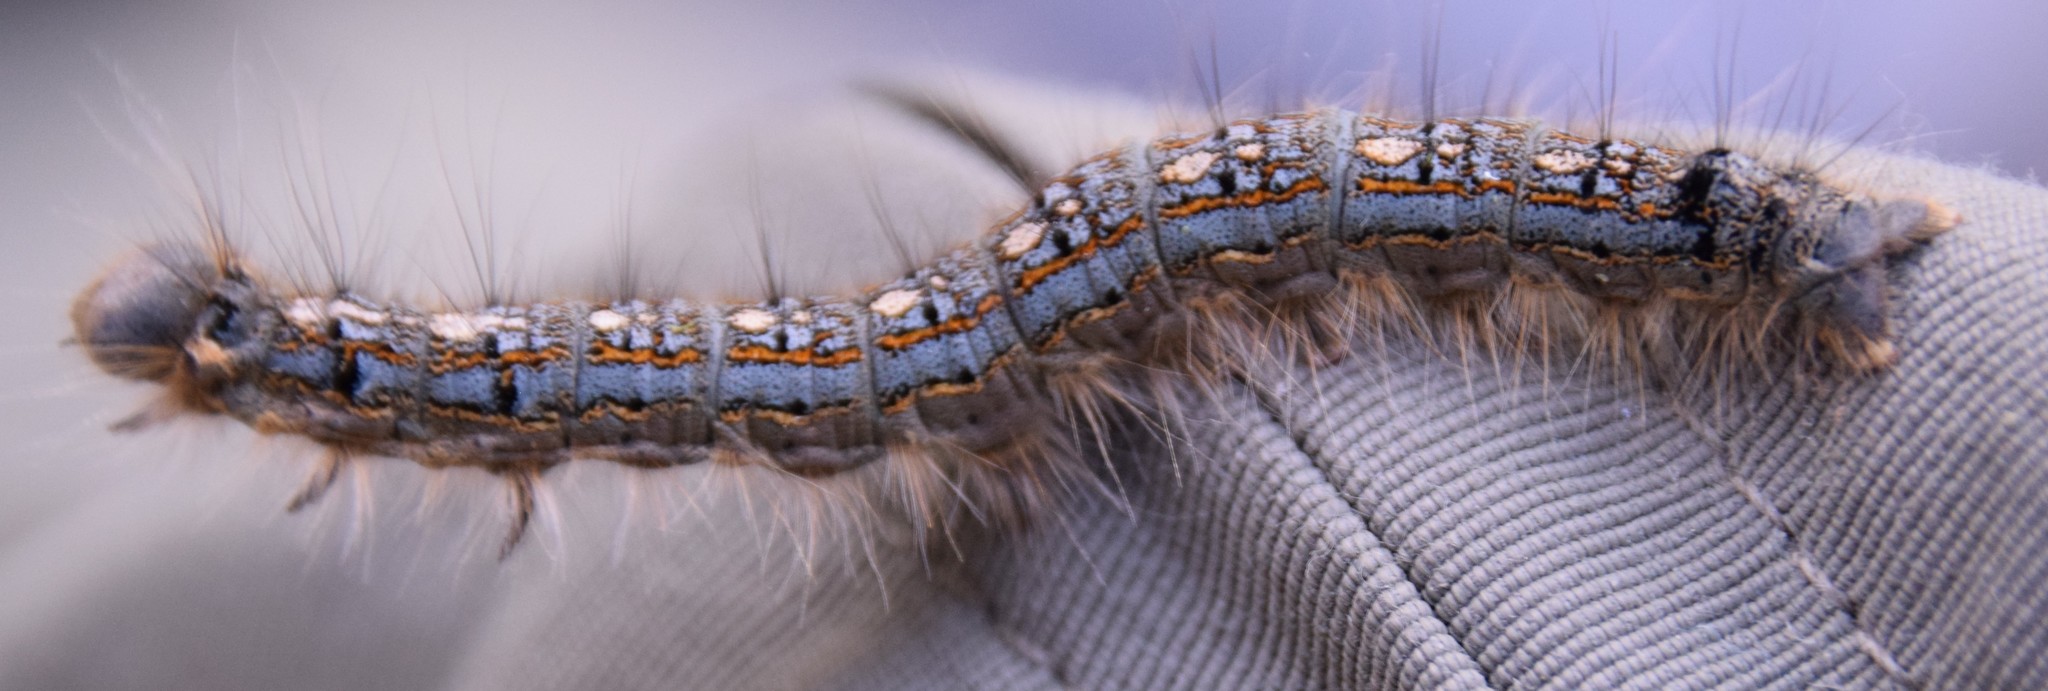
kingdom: Animalia
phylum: Arthropoda
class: Insecta
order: Lepidoptera
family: Lasiocampidae
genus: Malacosoma
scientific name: Malacosoma disstria
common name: Forest tent caterpillar
